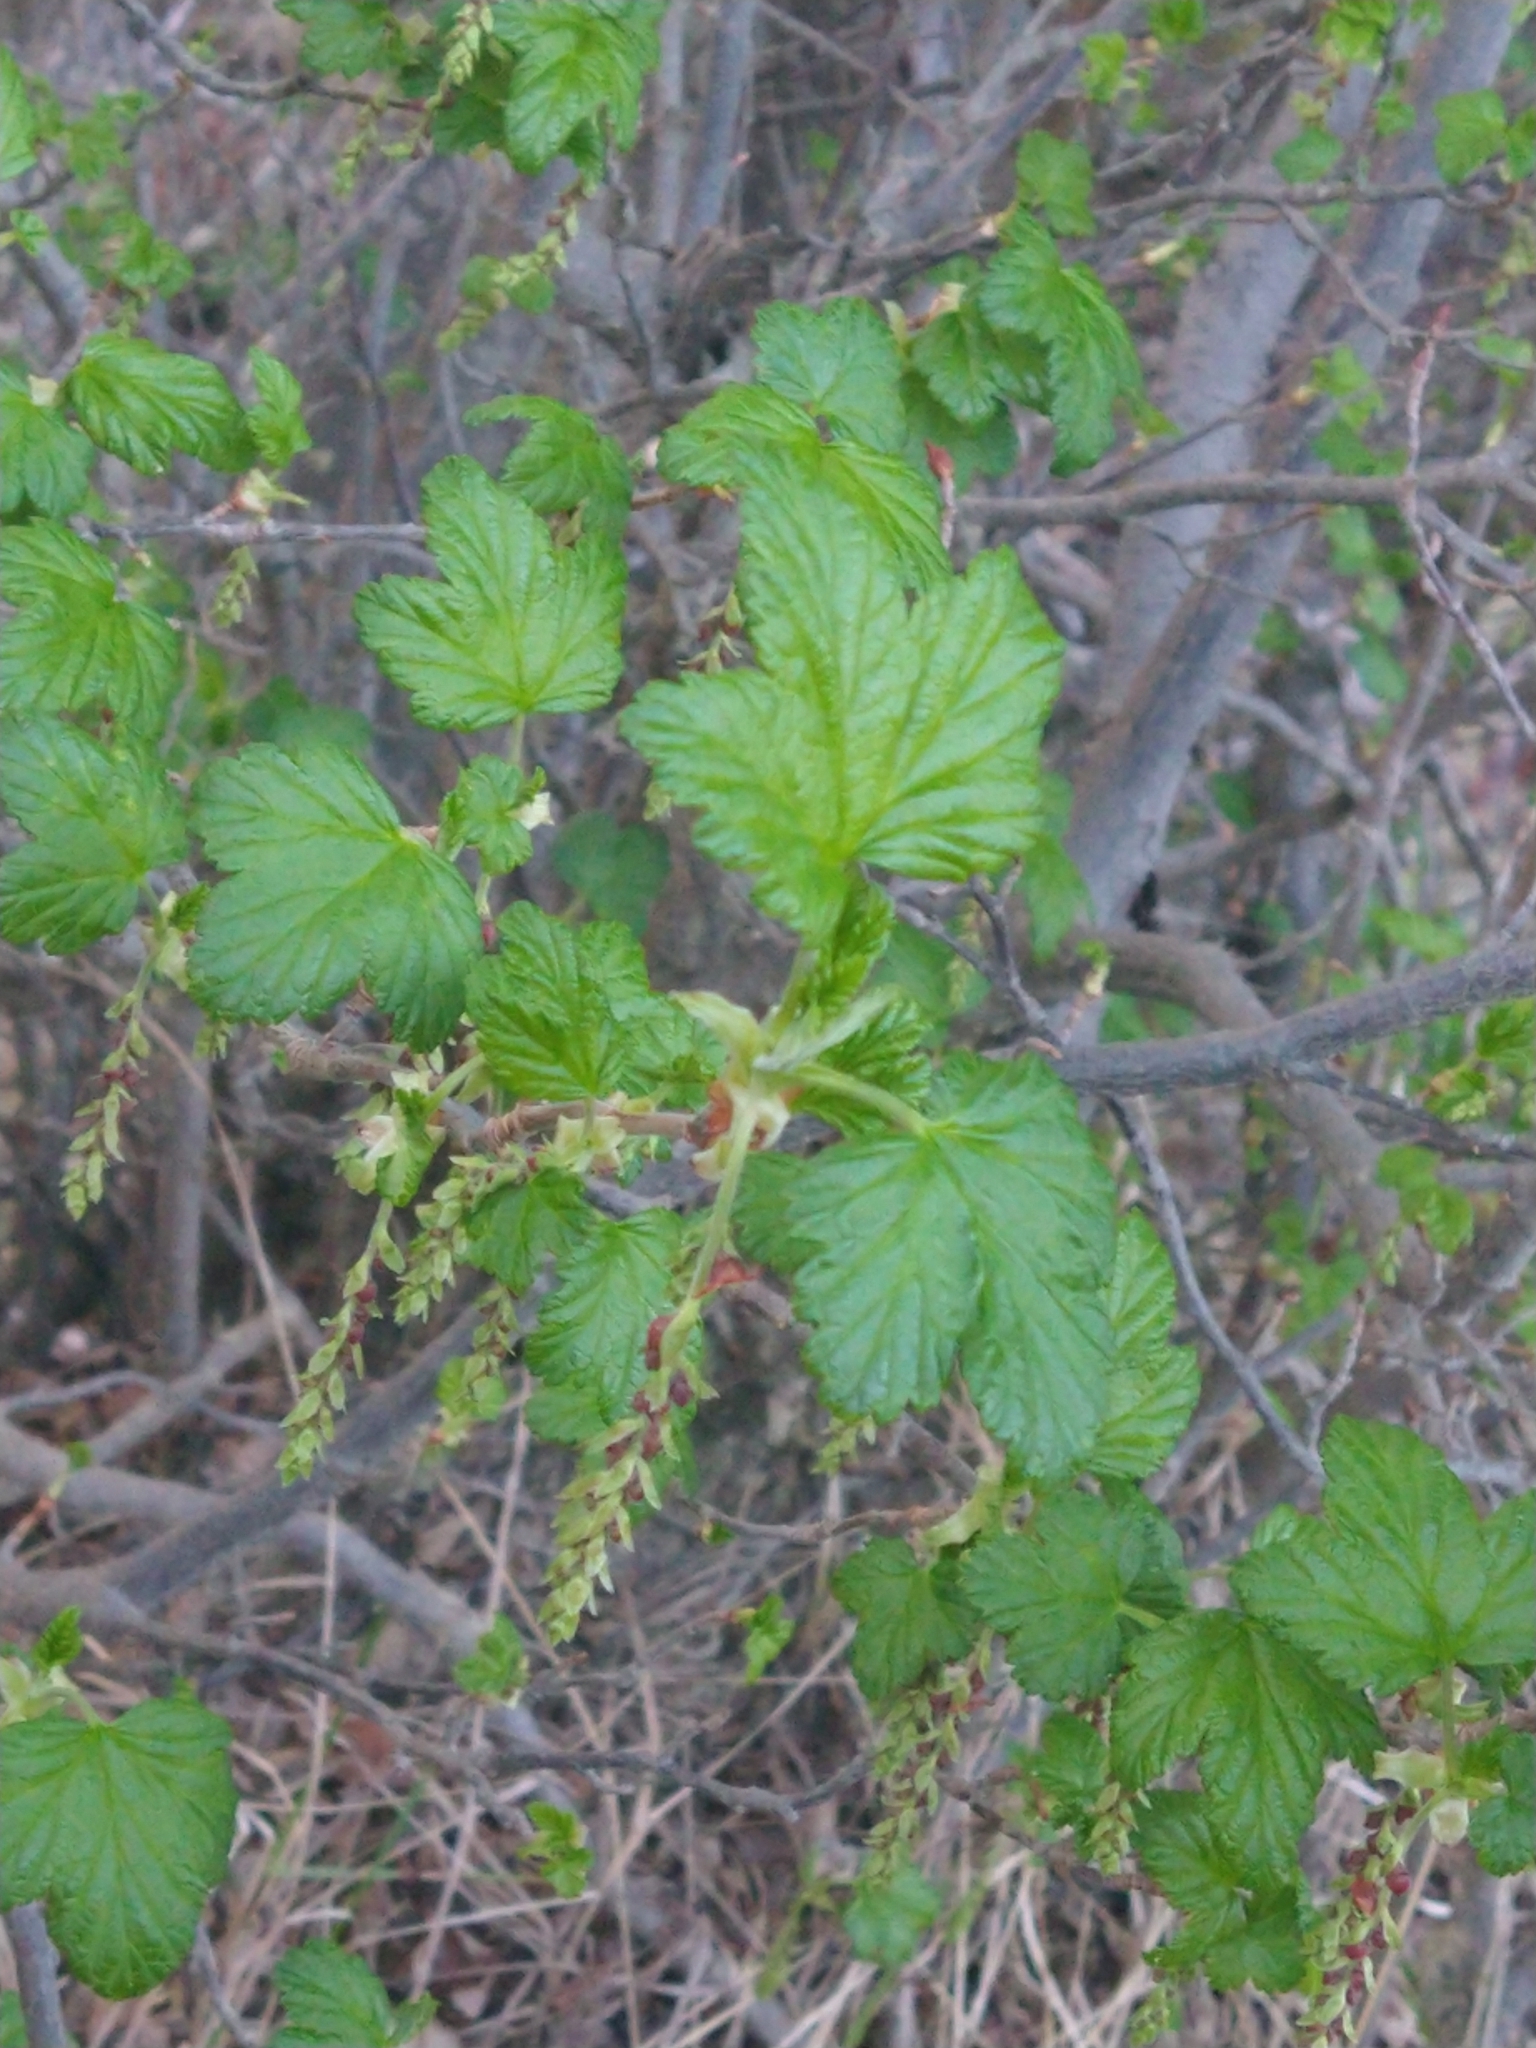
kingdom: Plantae
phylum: Tracheophyta
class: Magnoliopsida
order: Saxifragales
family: Grossulariaceae
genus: Ribes
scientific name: Ribes magellanicum
